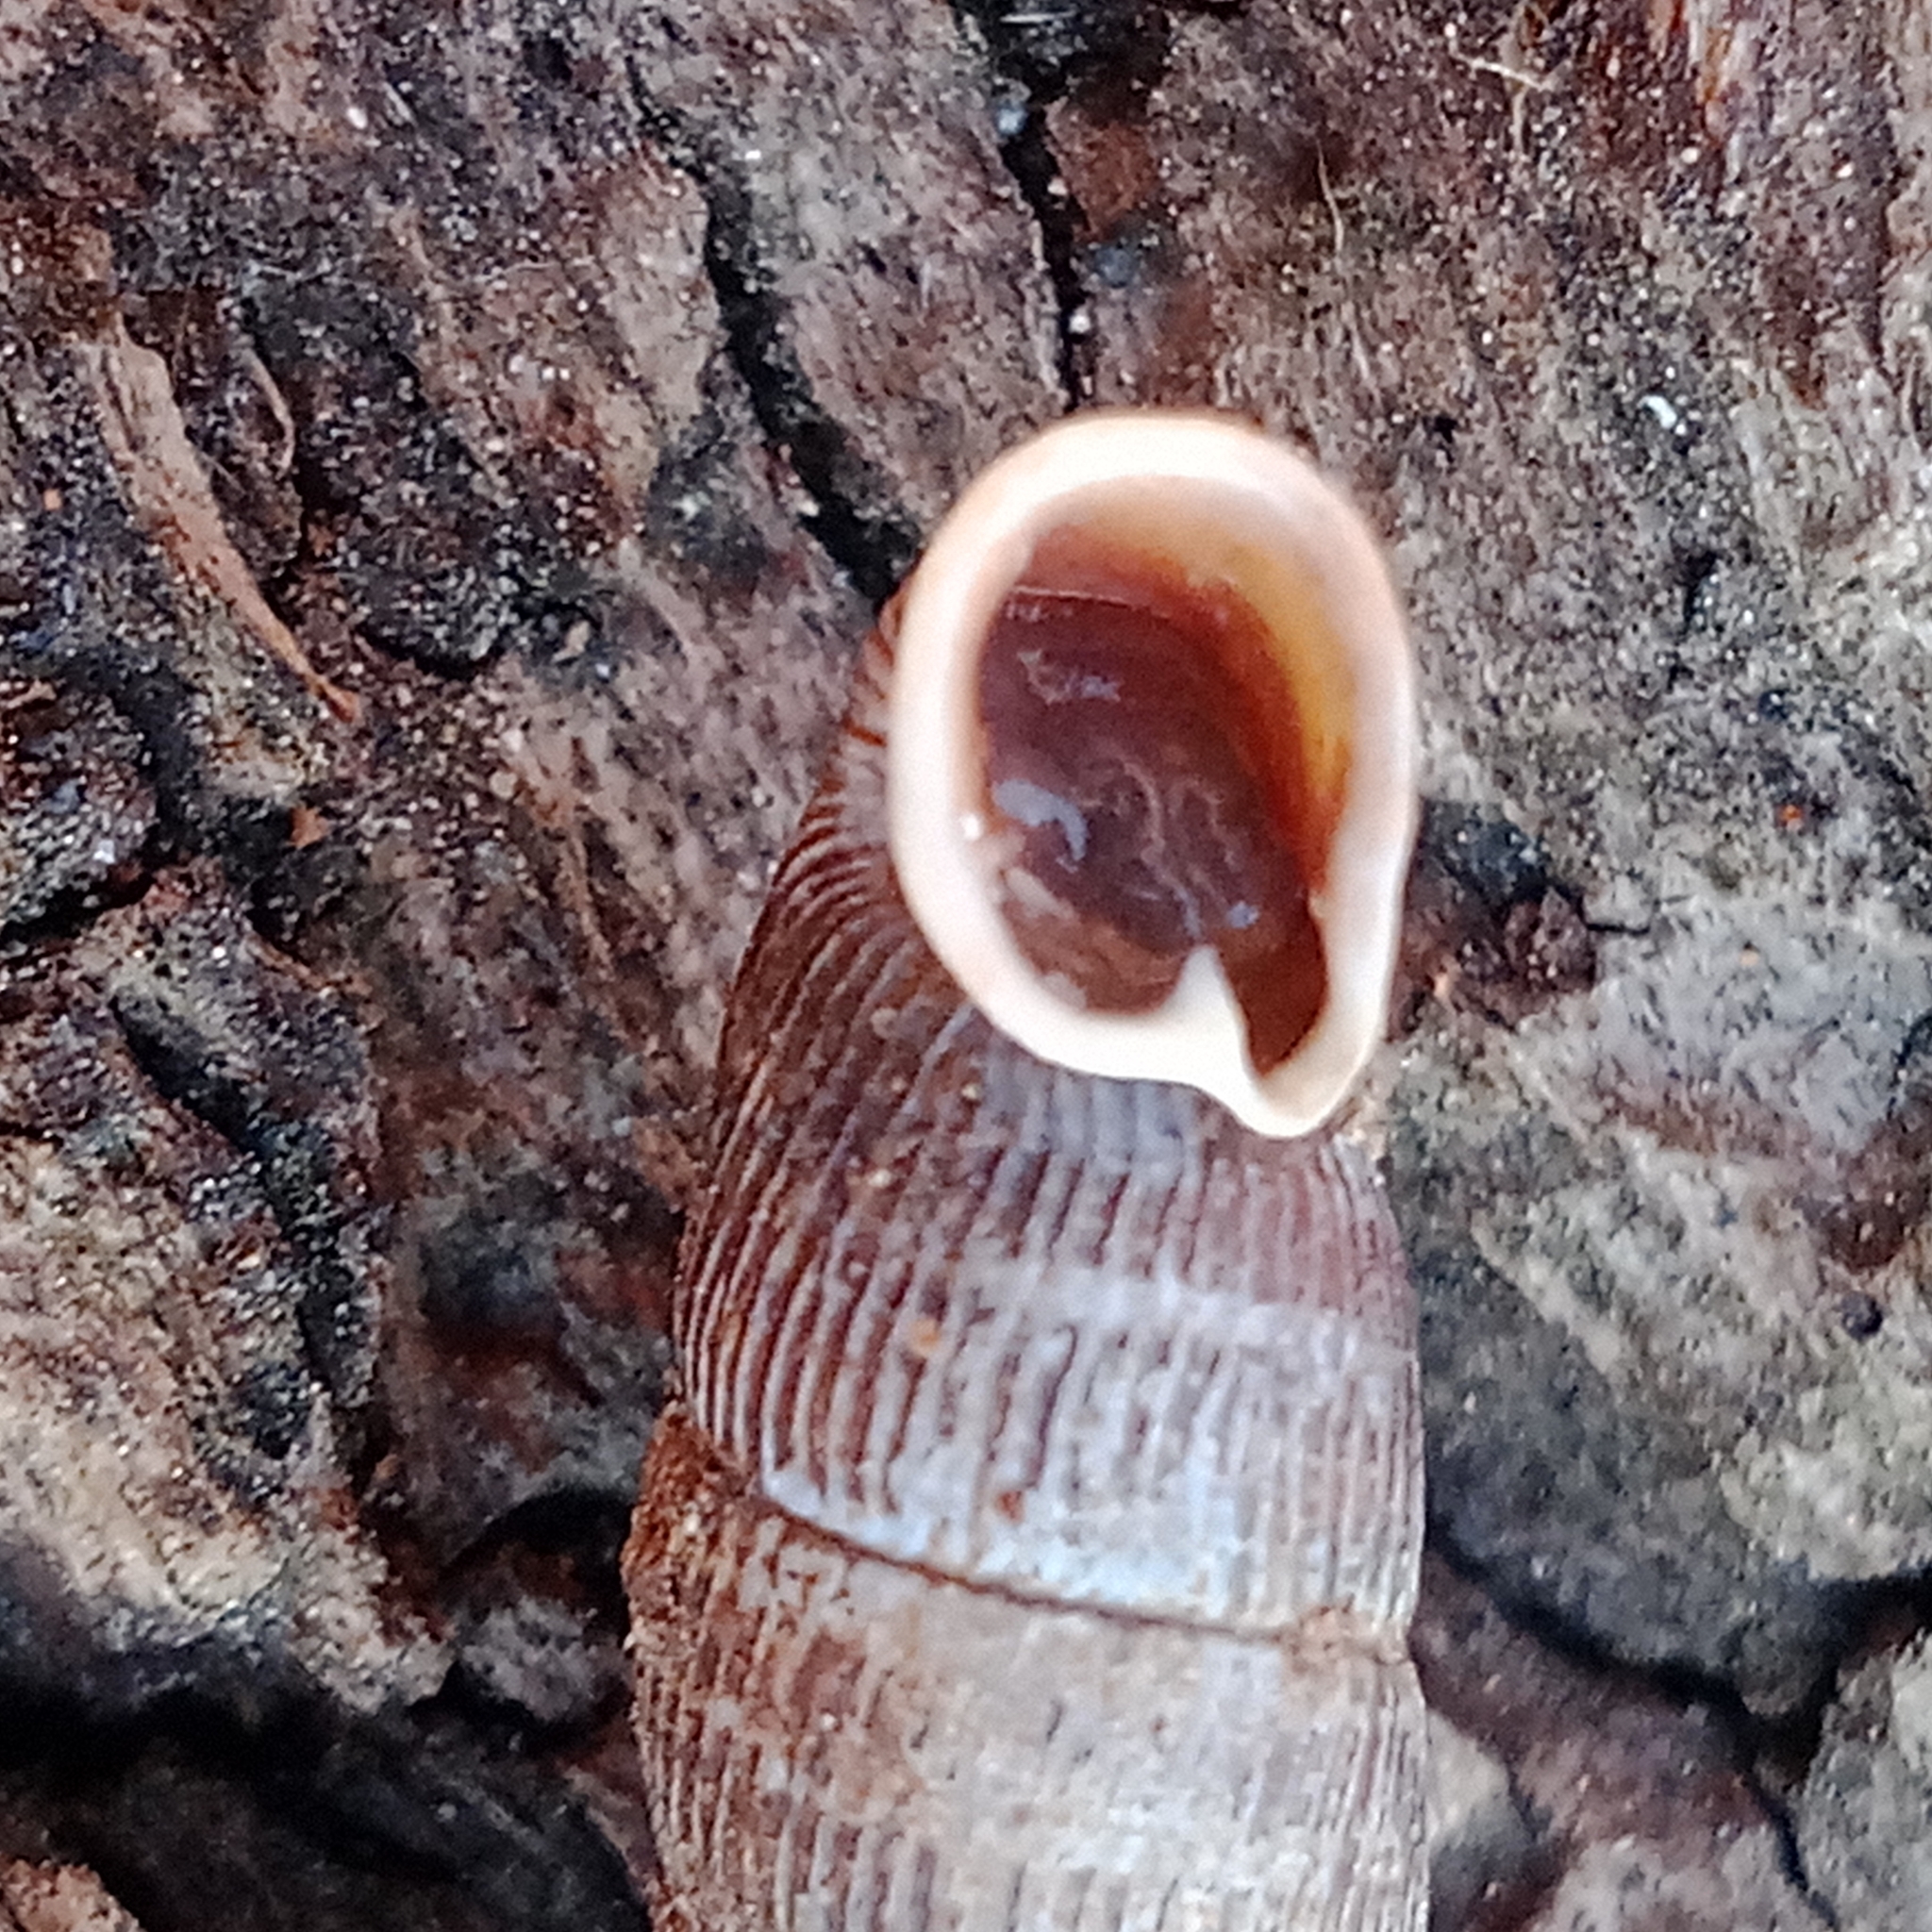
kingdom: Animalia
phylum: Mollusca
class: Gastropoda
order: Stylommatophora
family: Clausiliidae
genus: Macrogastra
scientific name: Macrogastra ventricosa
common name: Ventricose door snail
